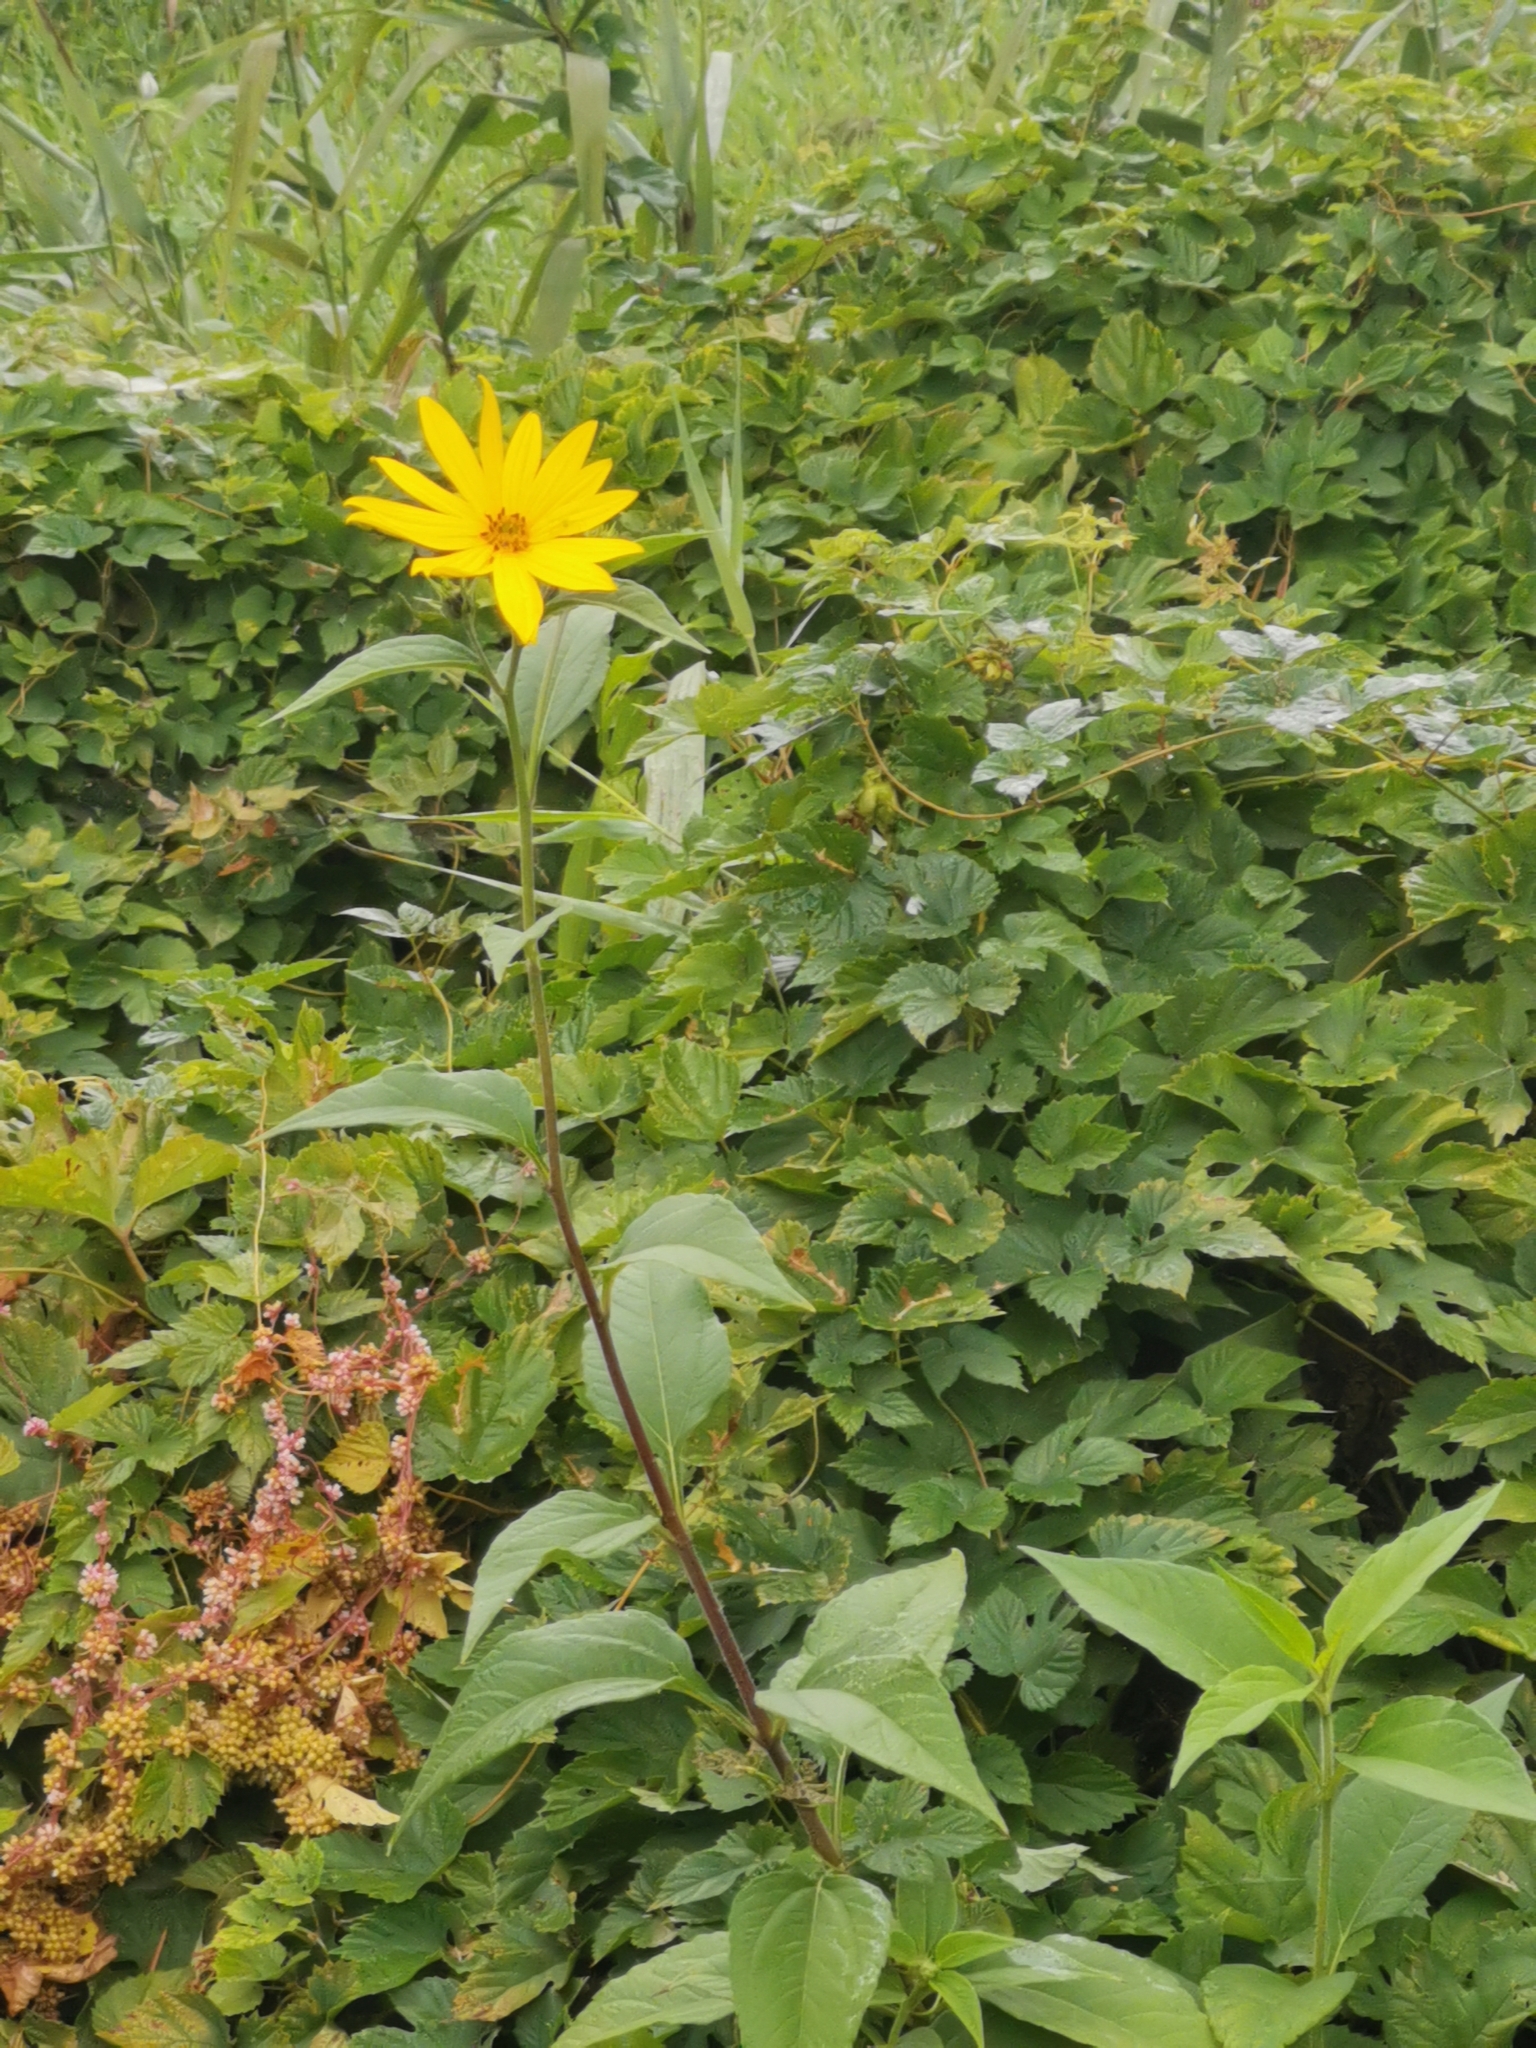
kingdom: Plantae
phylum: Tracheophyta
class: Magnoliopsida
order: Asterales
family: Asteraceae
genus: Helianthus
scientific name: Helianthus tuberosus
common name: Jerusalem artichoke
